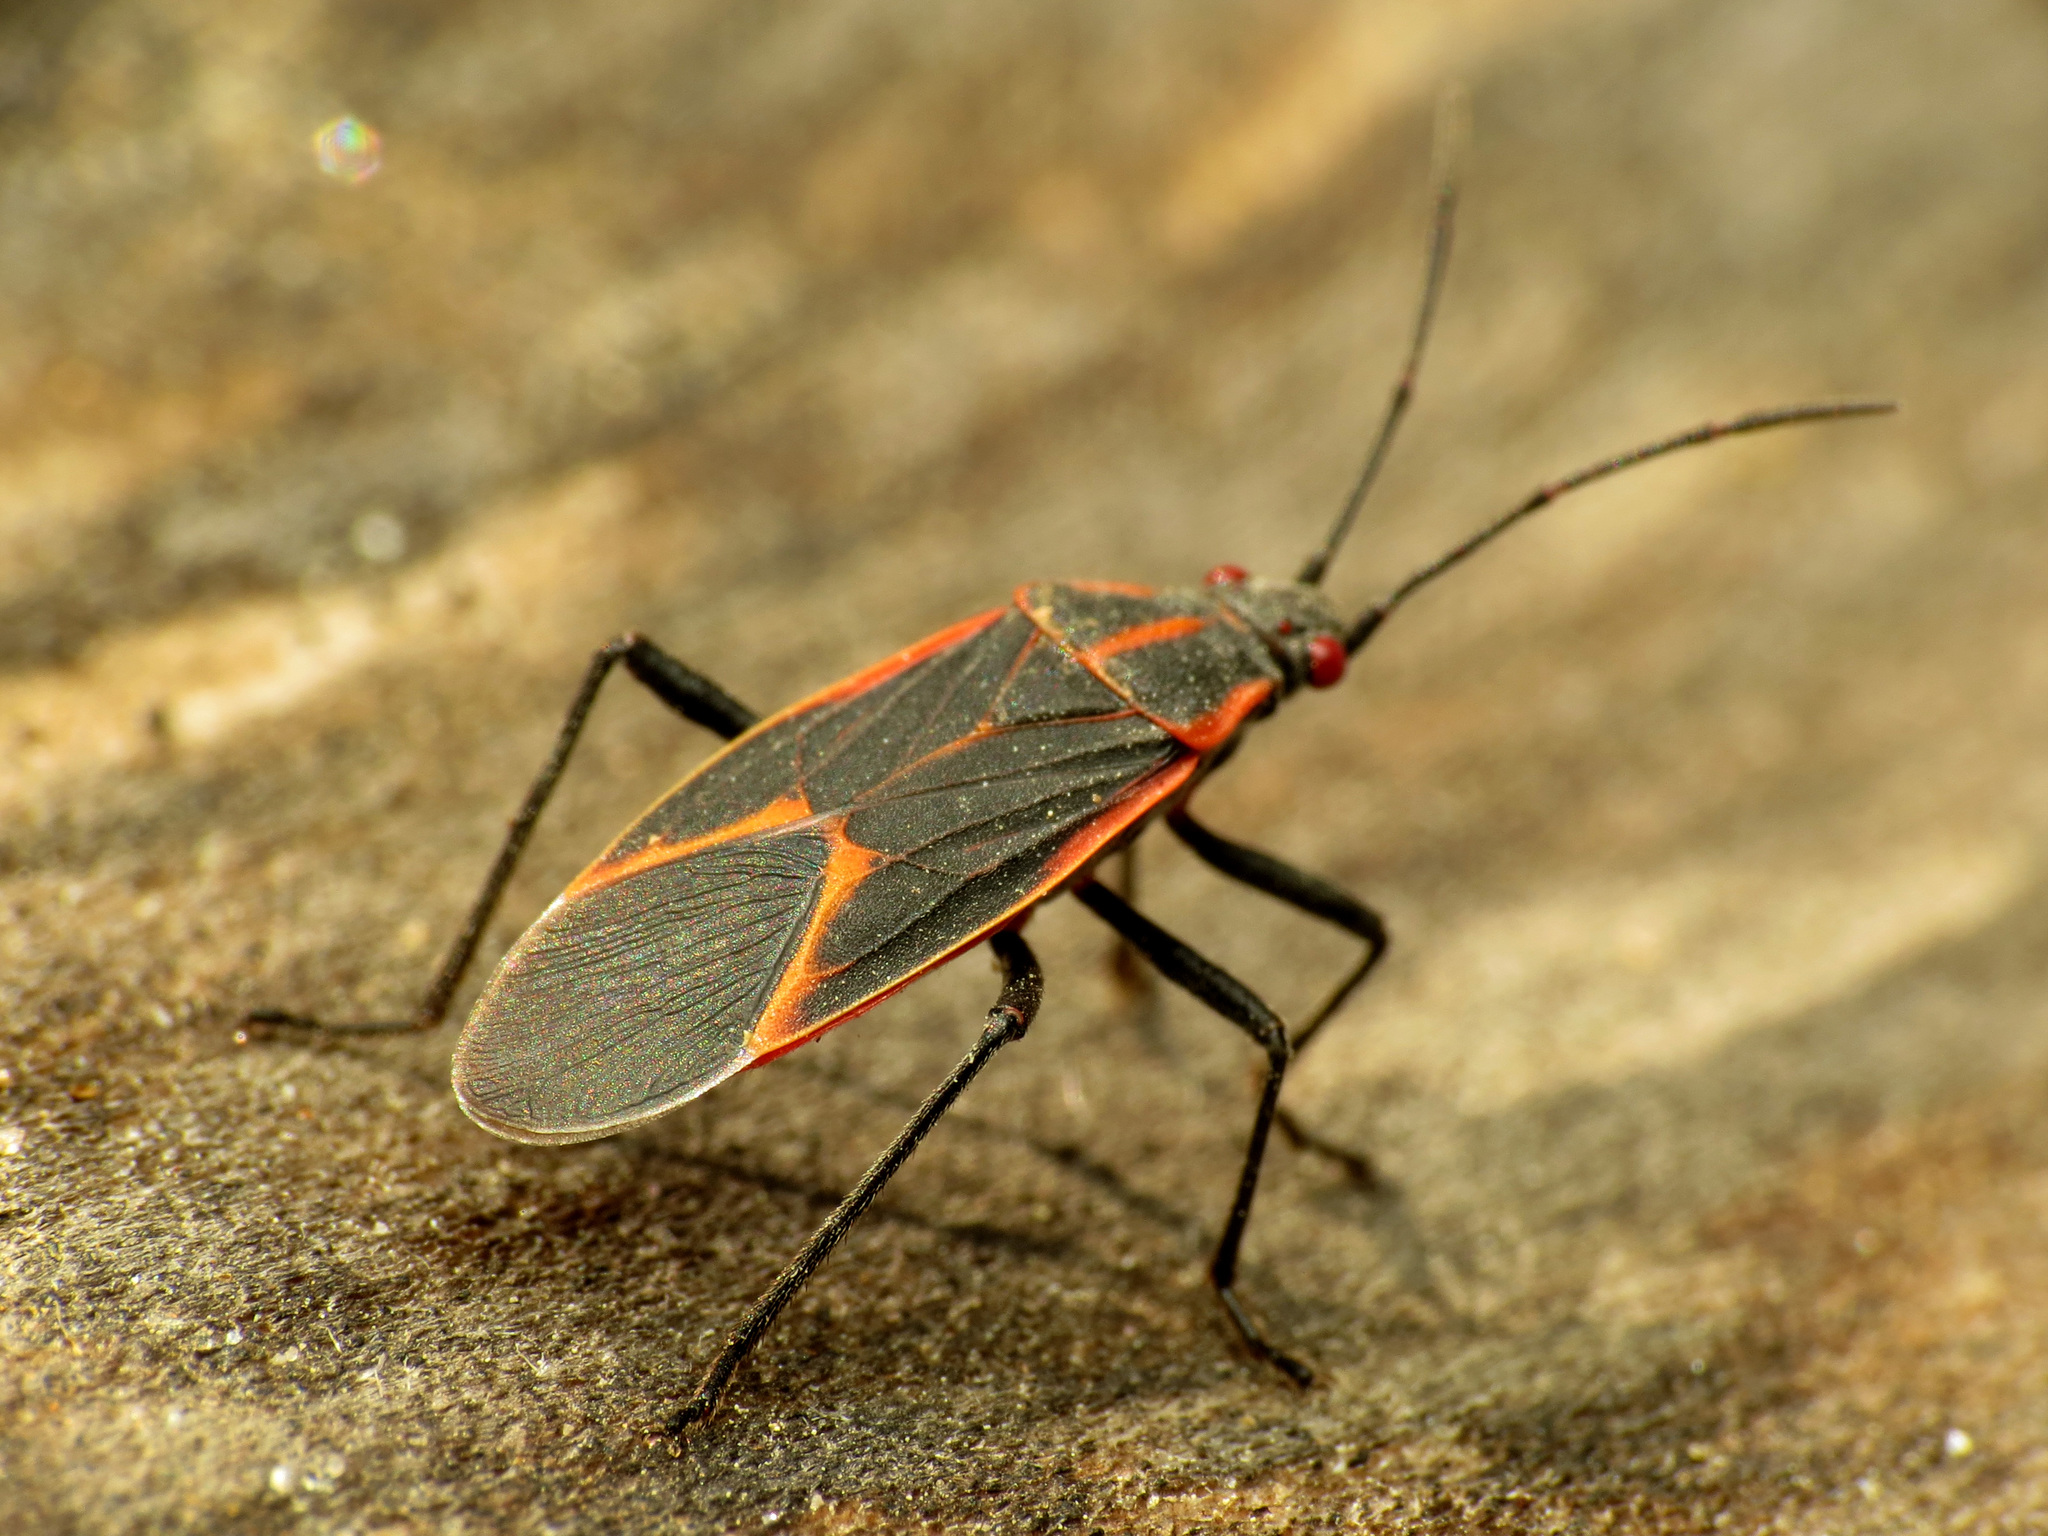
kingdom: Animalia
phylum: Arthropoda
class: Insecta
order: Hemiptera
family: Rhopalidae
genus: Boisea
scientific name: Boisea trivittata
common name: Boxelder bug
